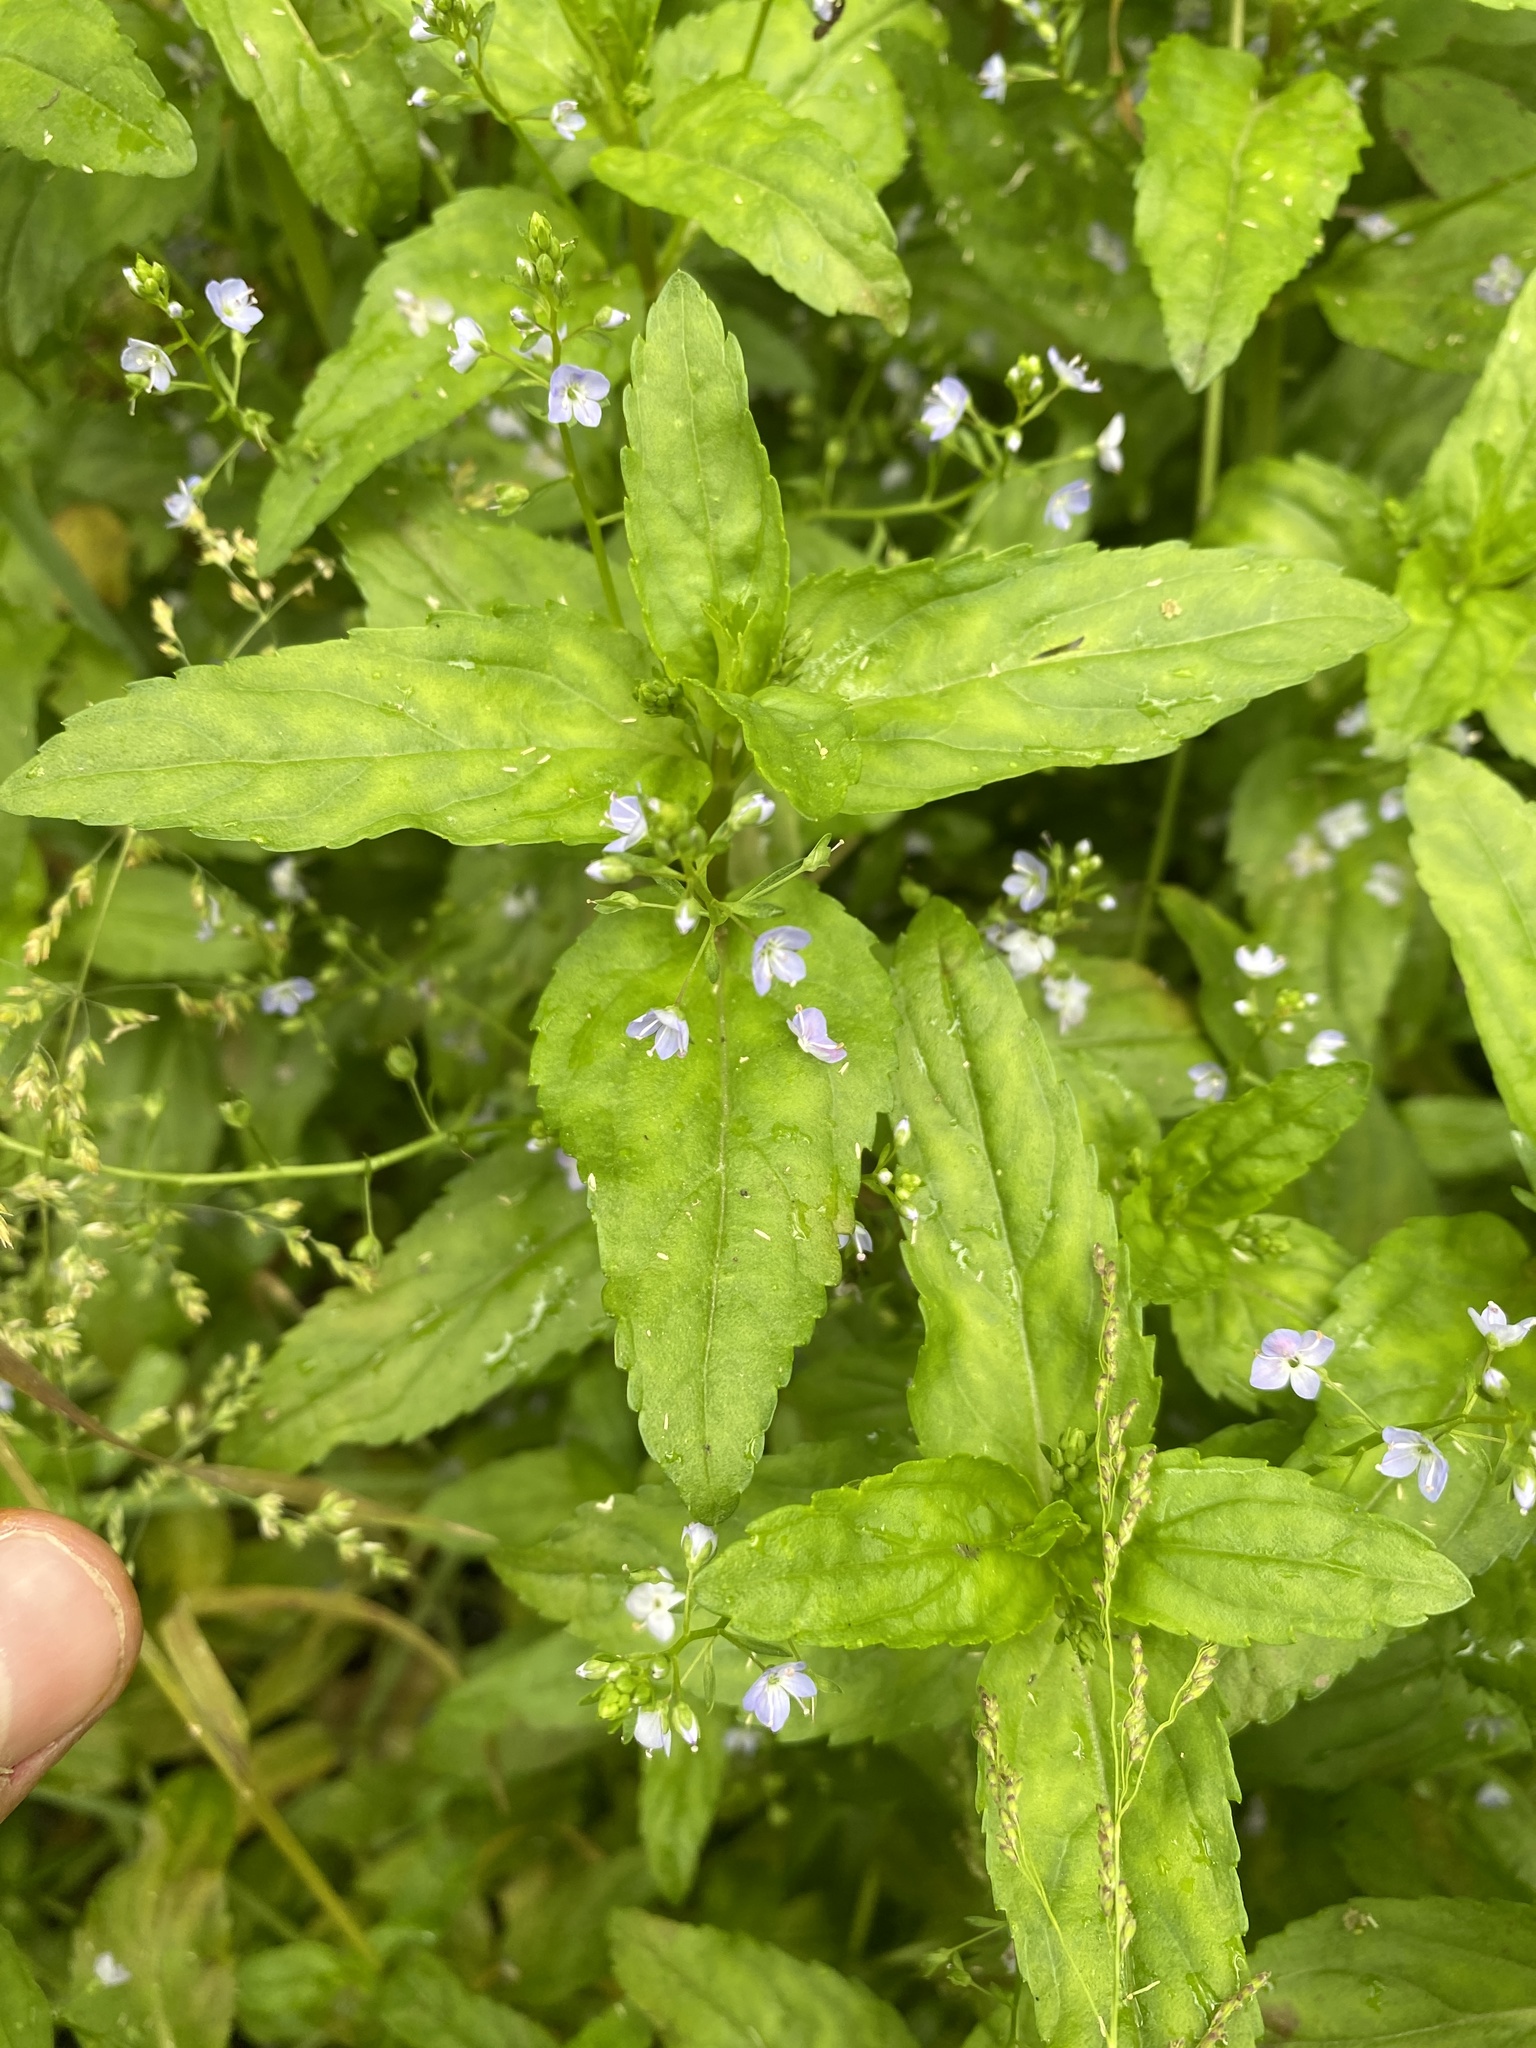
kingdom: Plantae
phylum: Tracheophyta
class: Magnoliopsida
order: Lamiales
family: Plantaginaceae
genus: Veronica
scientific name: Veronica americana
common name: American brooklime
